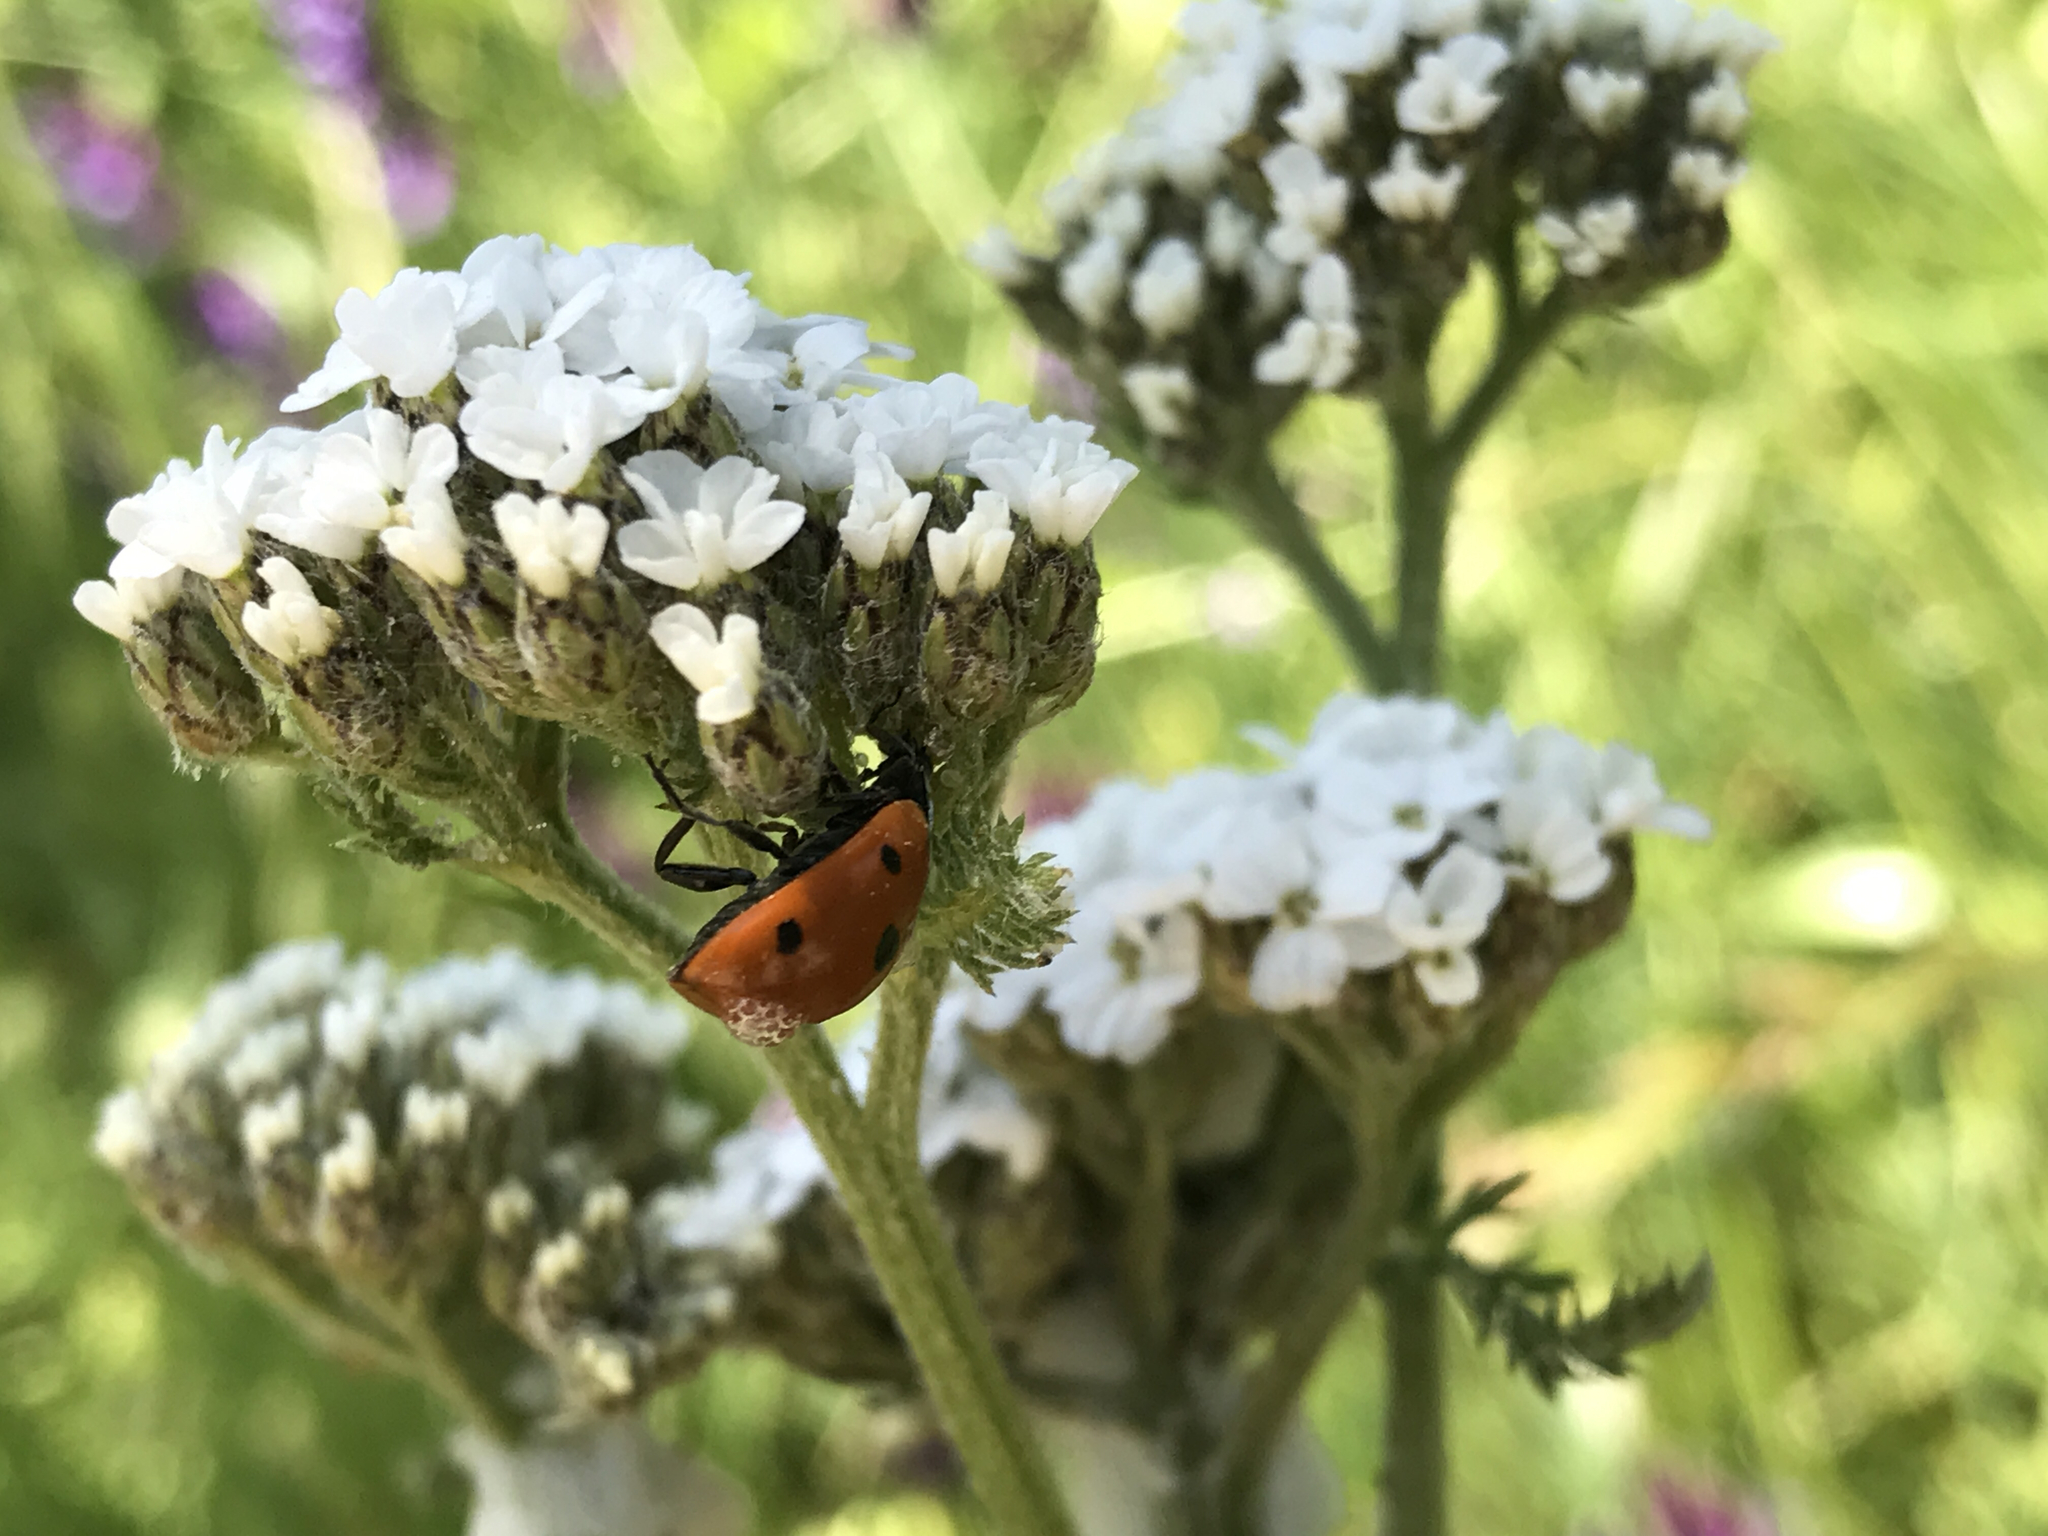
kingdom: Animalia
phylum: Arthropoda
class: Insecta
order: Coleoptera
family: Coccinellidae
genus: Coccinella
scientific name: Coccinella septempunctata
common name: Sevenspotted lady beetle
